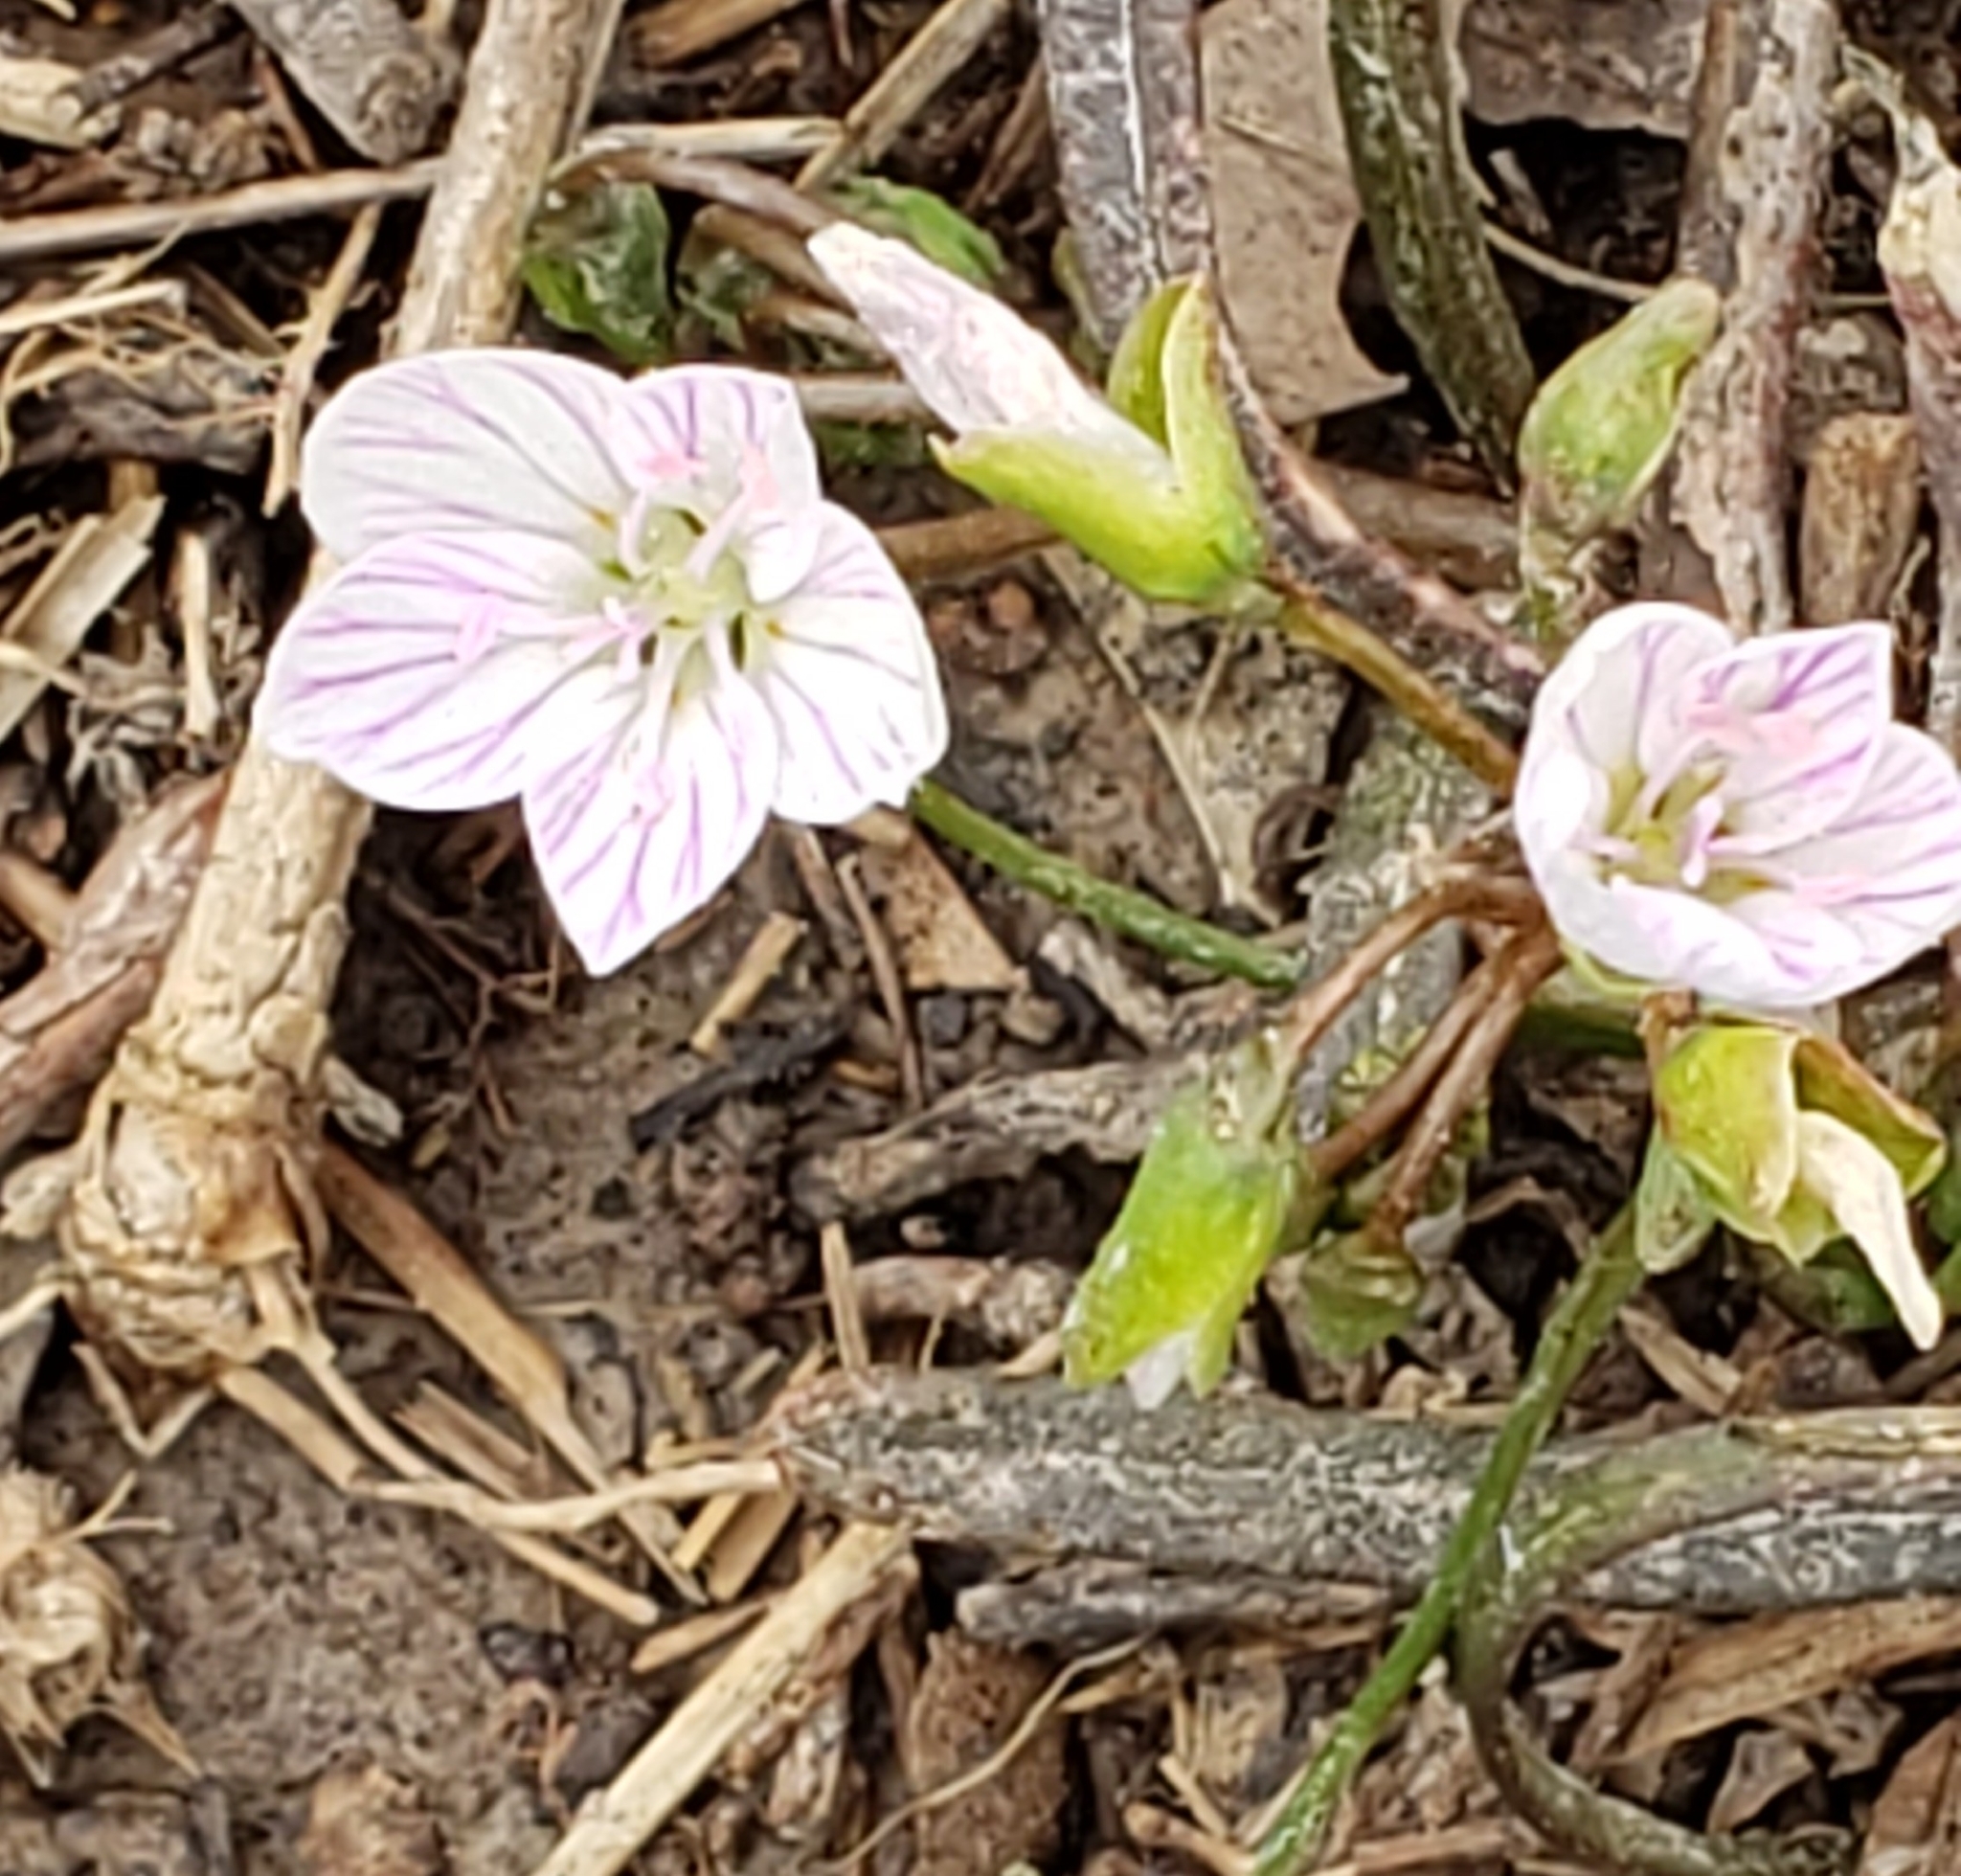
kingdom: Plantae
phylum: Tracheophyta
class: Magnoliopsida
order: Caryophyllales
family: Montiaceae
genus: Claytonia
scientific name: Claytonia virginica
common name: Virginia springbeauty
